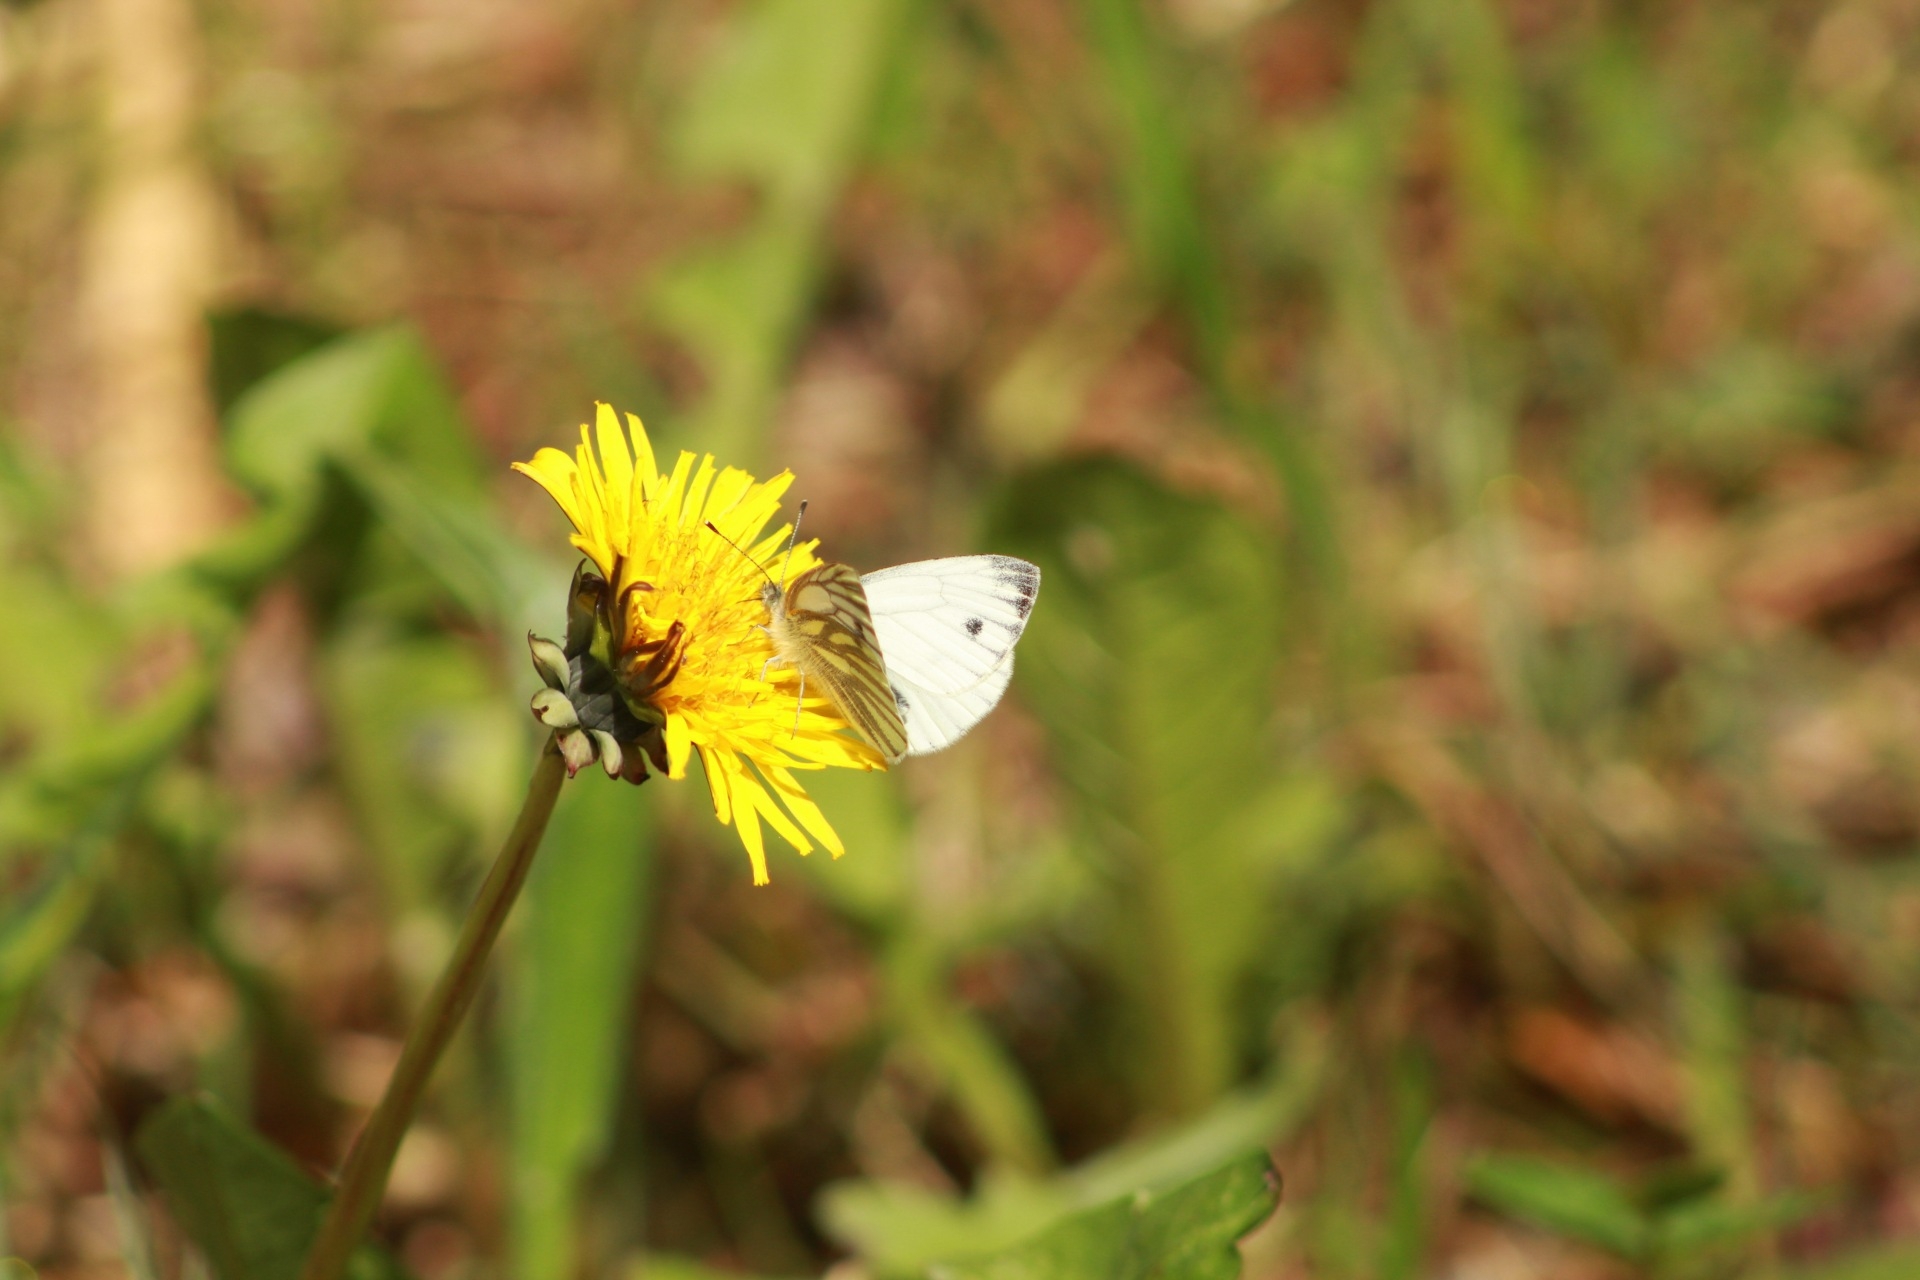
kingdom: Animalia
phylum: Arthropoda
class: Insecta
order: Lepidoptera
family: Pieridae
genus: Pieris
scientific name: Pieris napi
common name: Green-veined white
